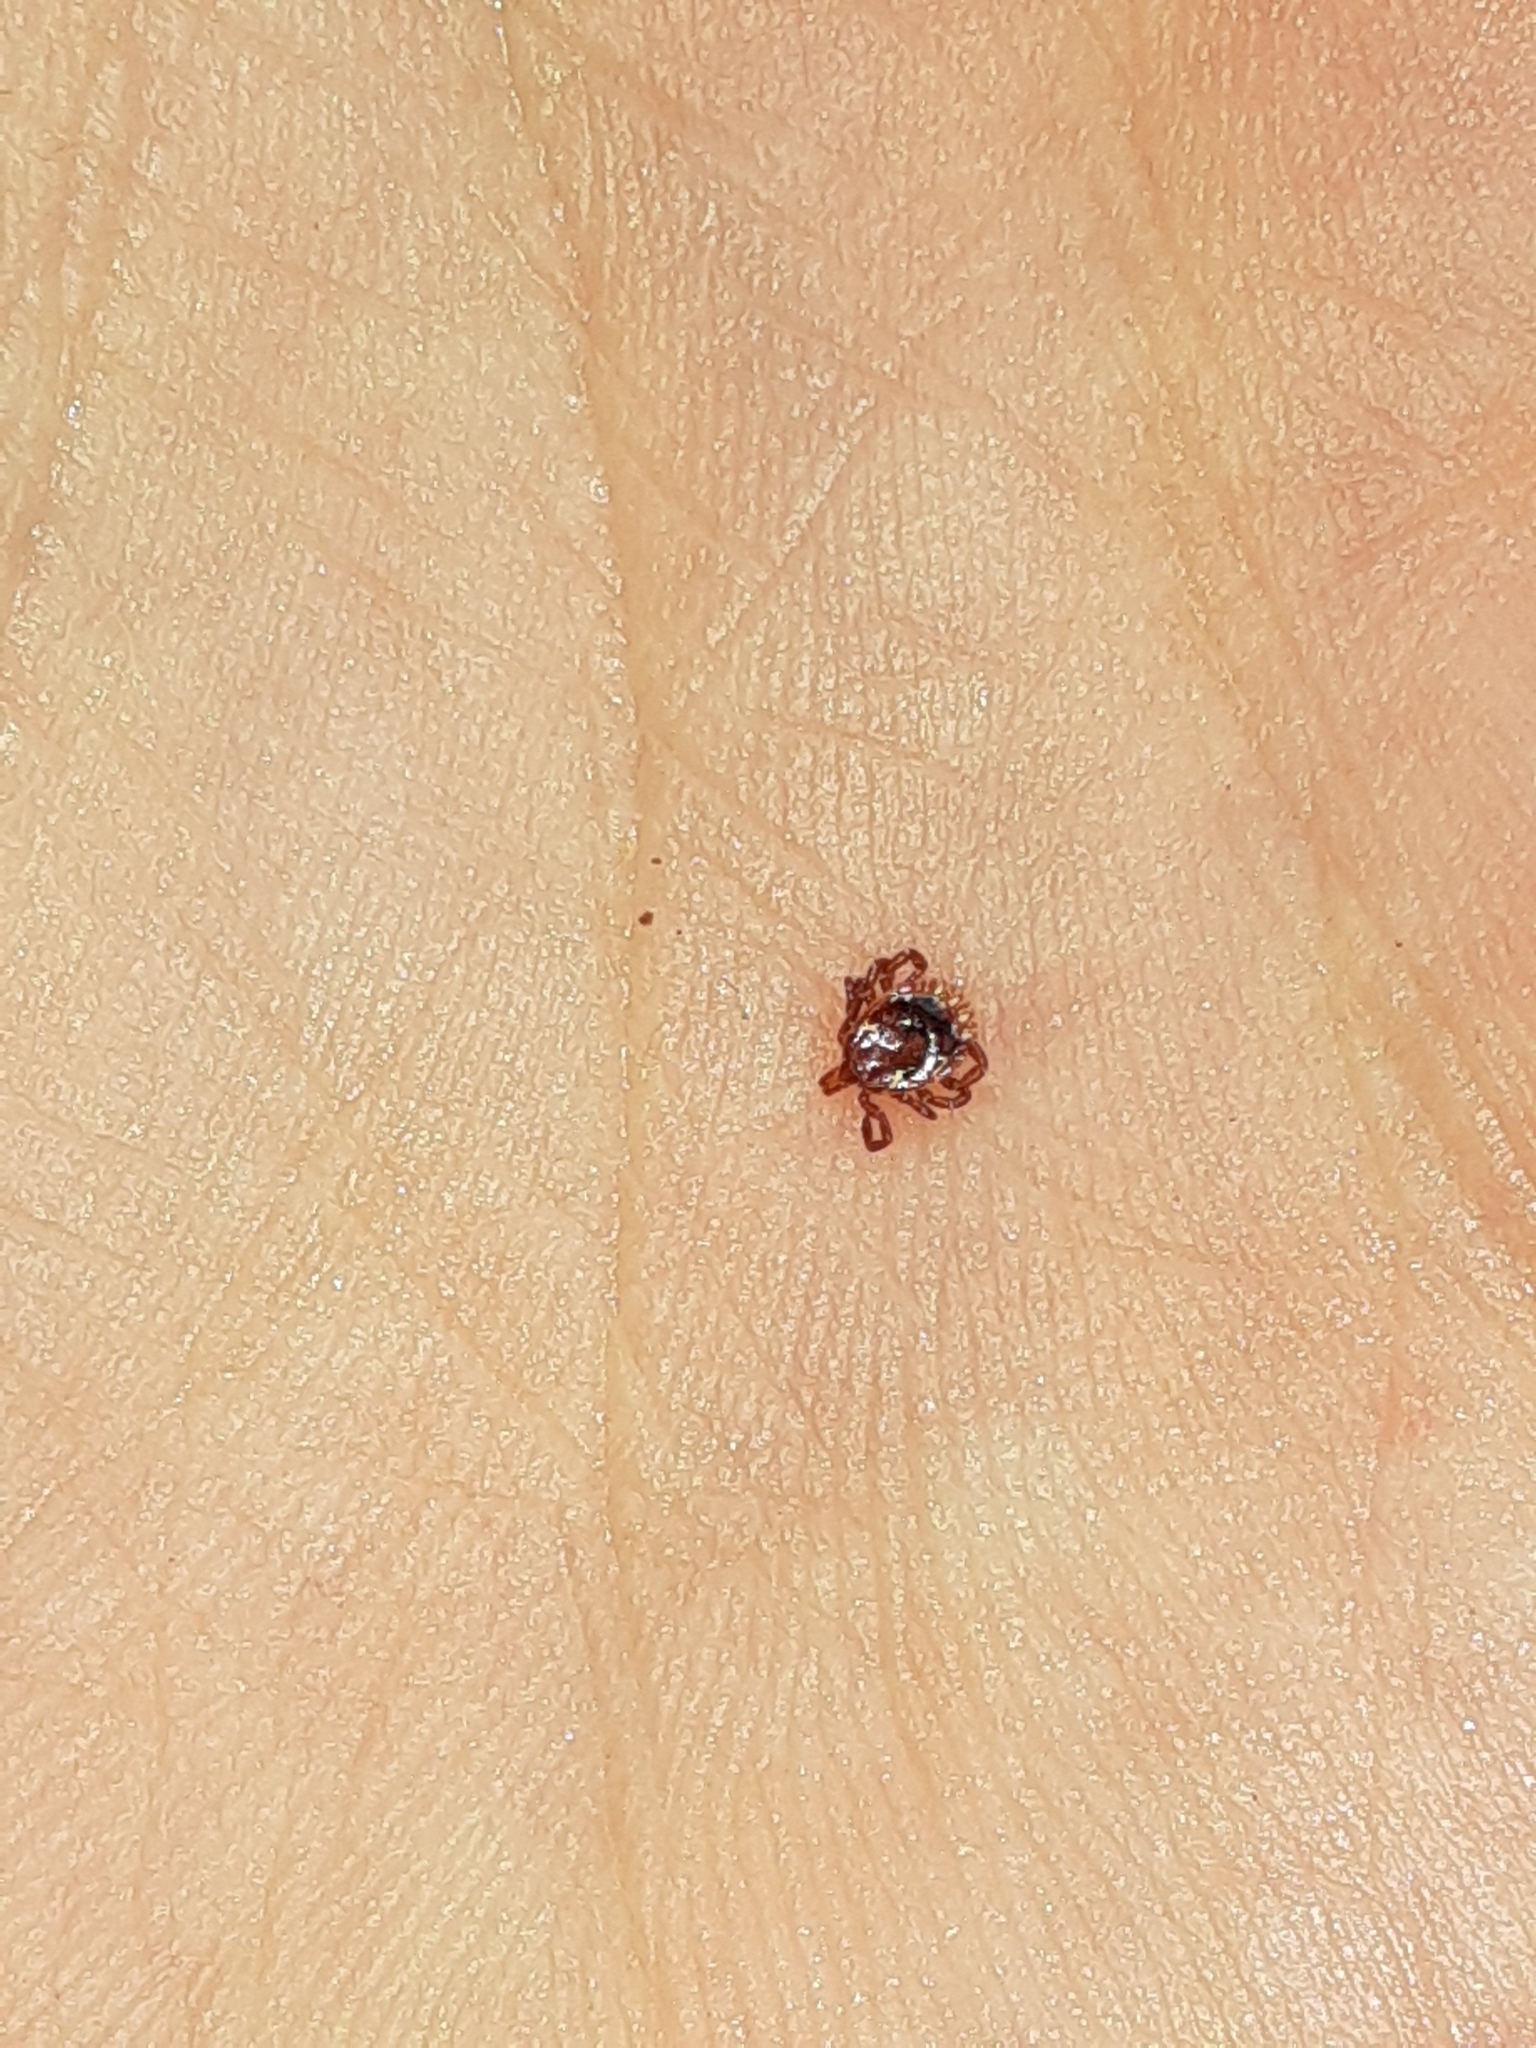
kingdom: Animalia
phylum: Arthropoda
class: Arachnida
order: Ixodida
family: Ixodidae
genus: Amblyomma
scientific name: Amblyomma americanum
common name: Lone star tick
